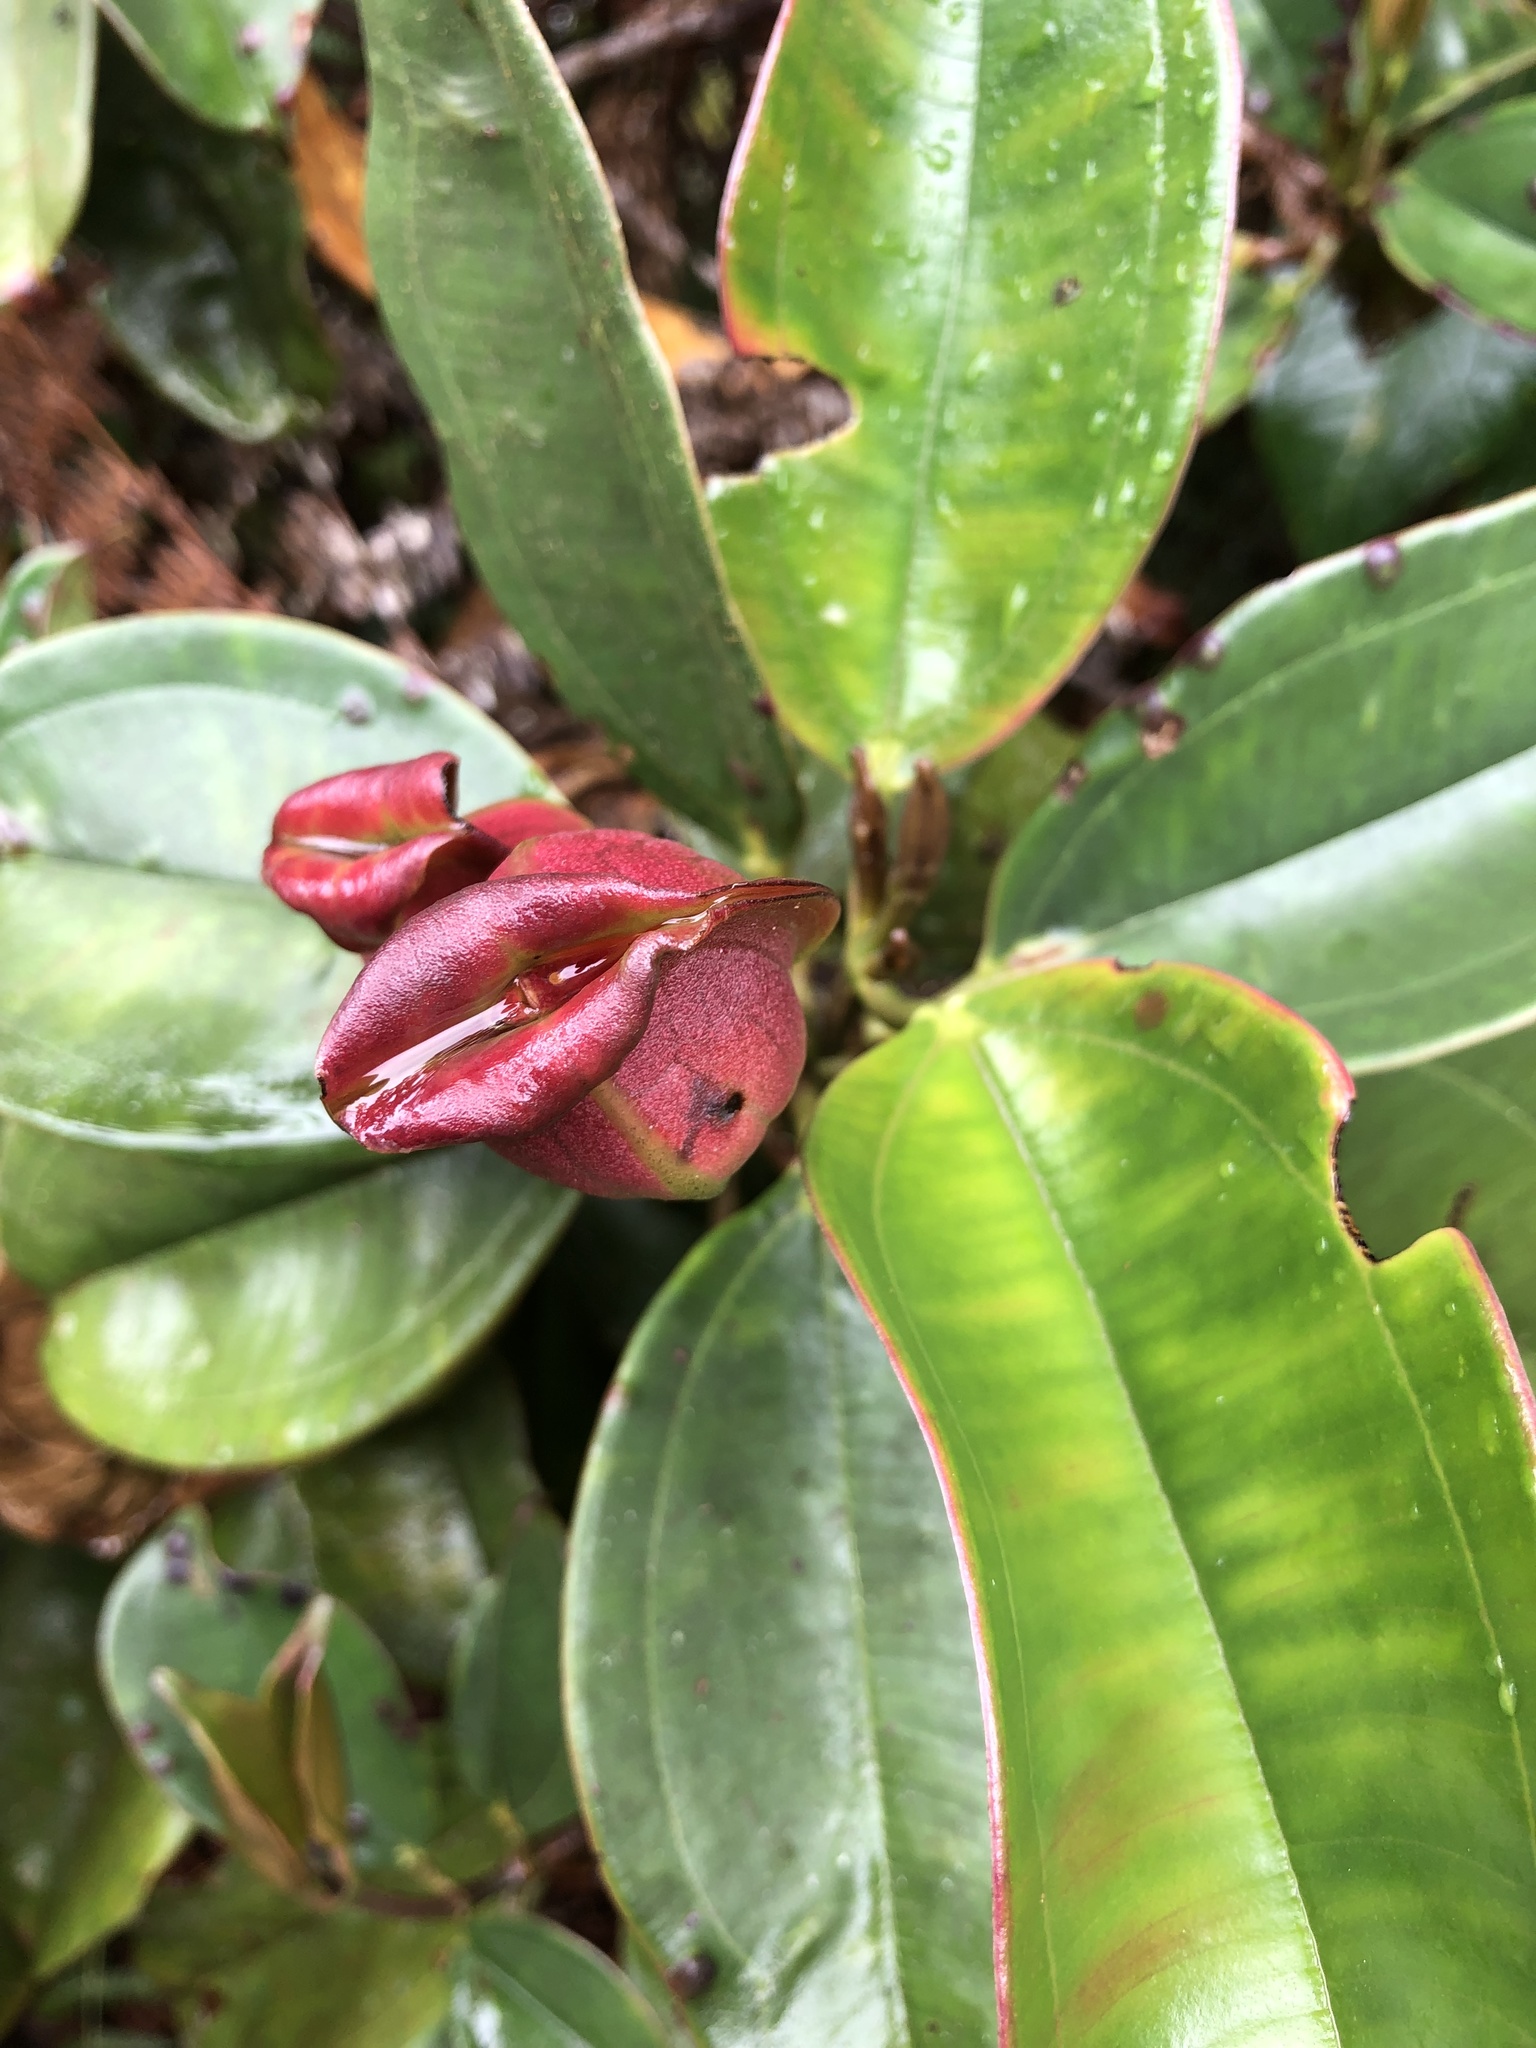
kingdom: Plantae
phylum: Tracheophyta
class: Magnoliopsida
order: Myrtales
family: Melastomataceae
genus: Blakea
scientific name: Blakea quadrangularis
